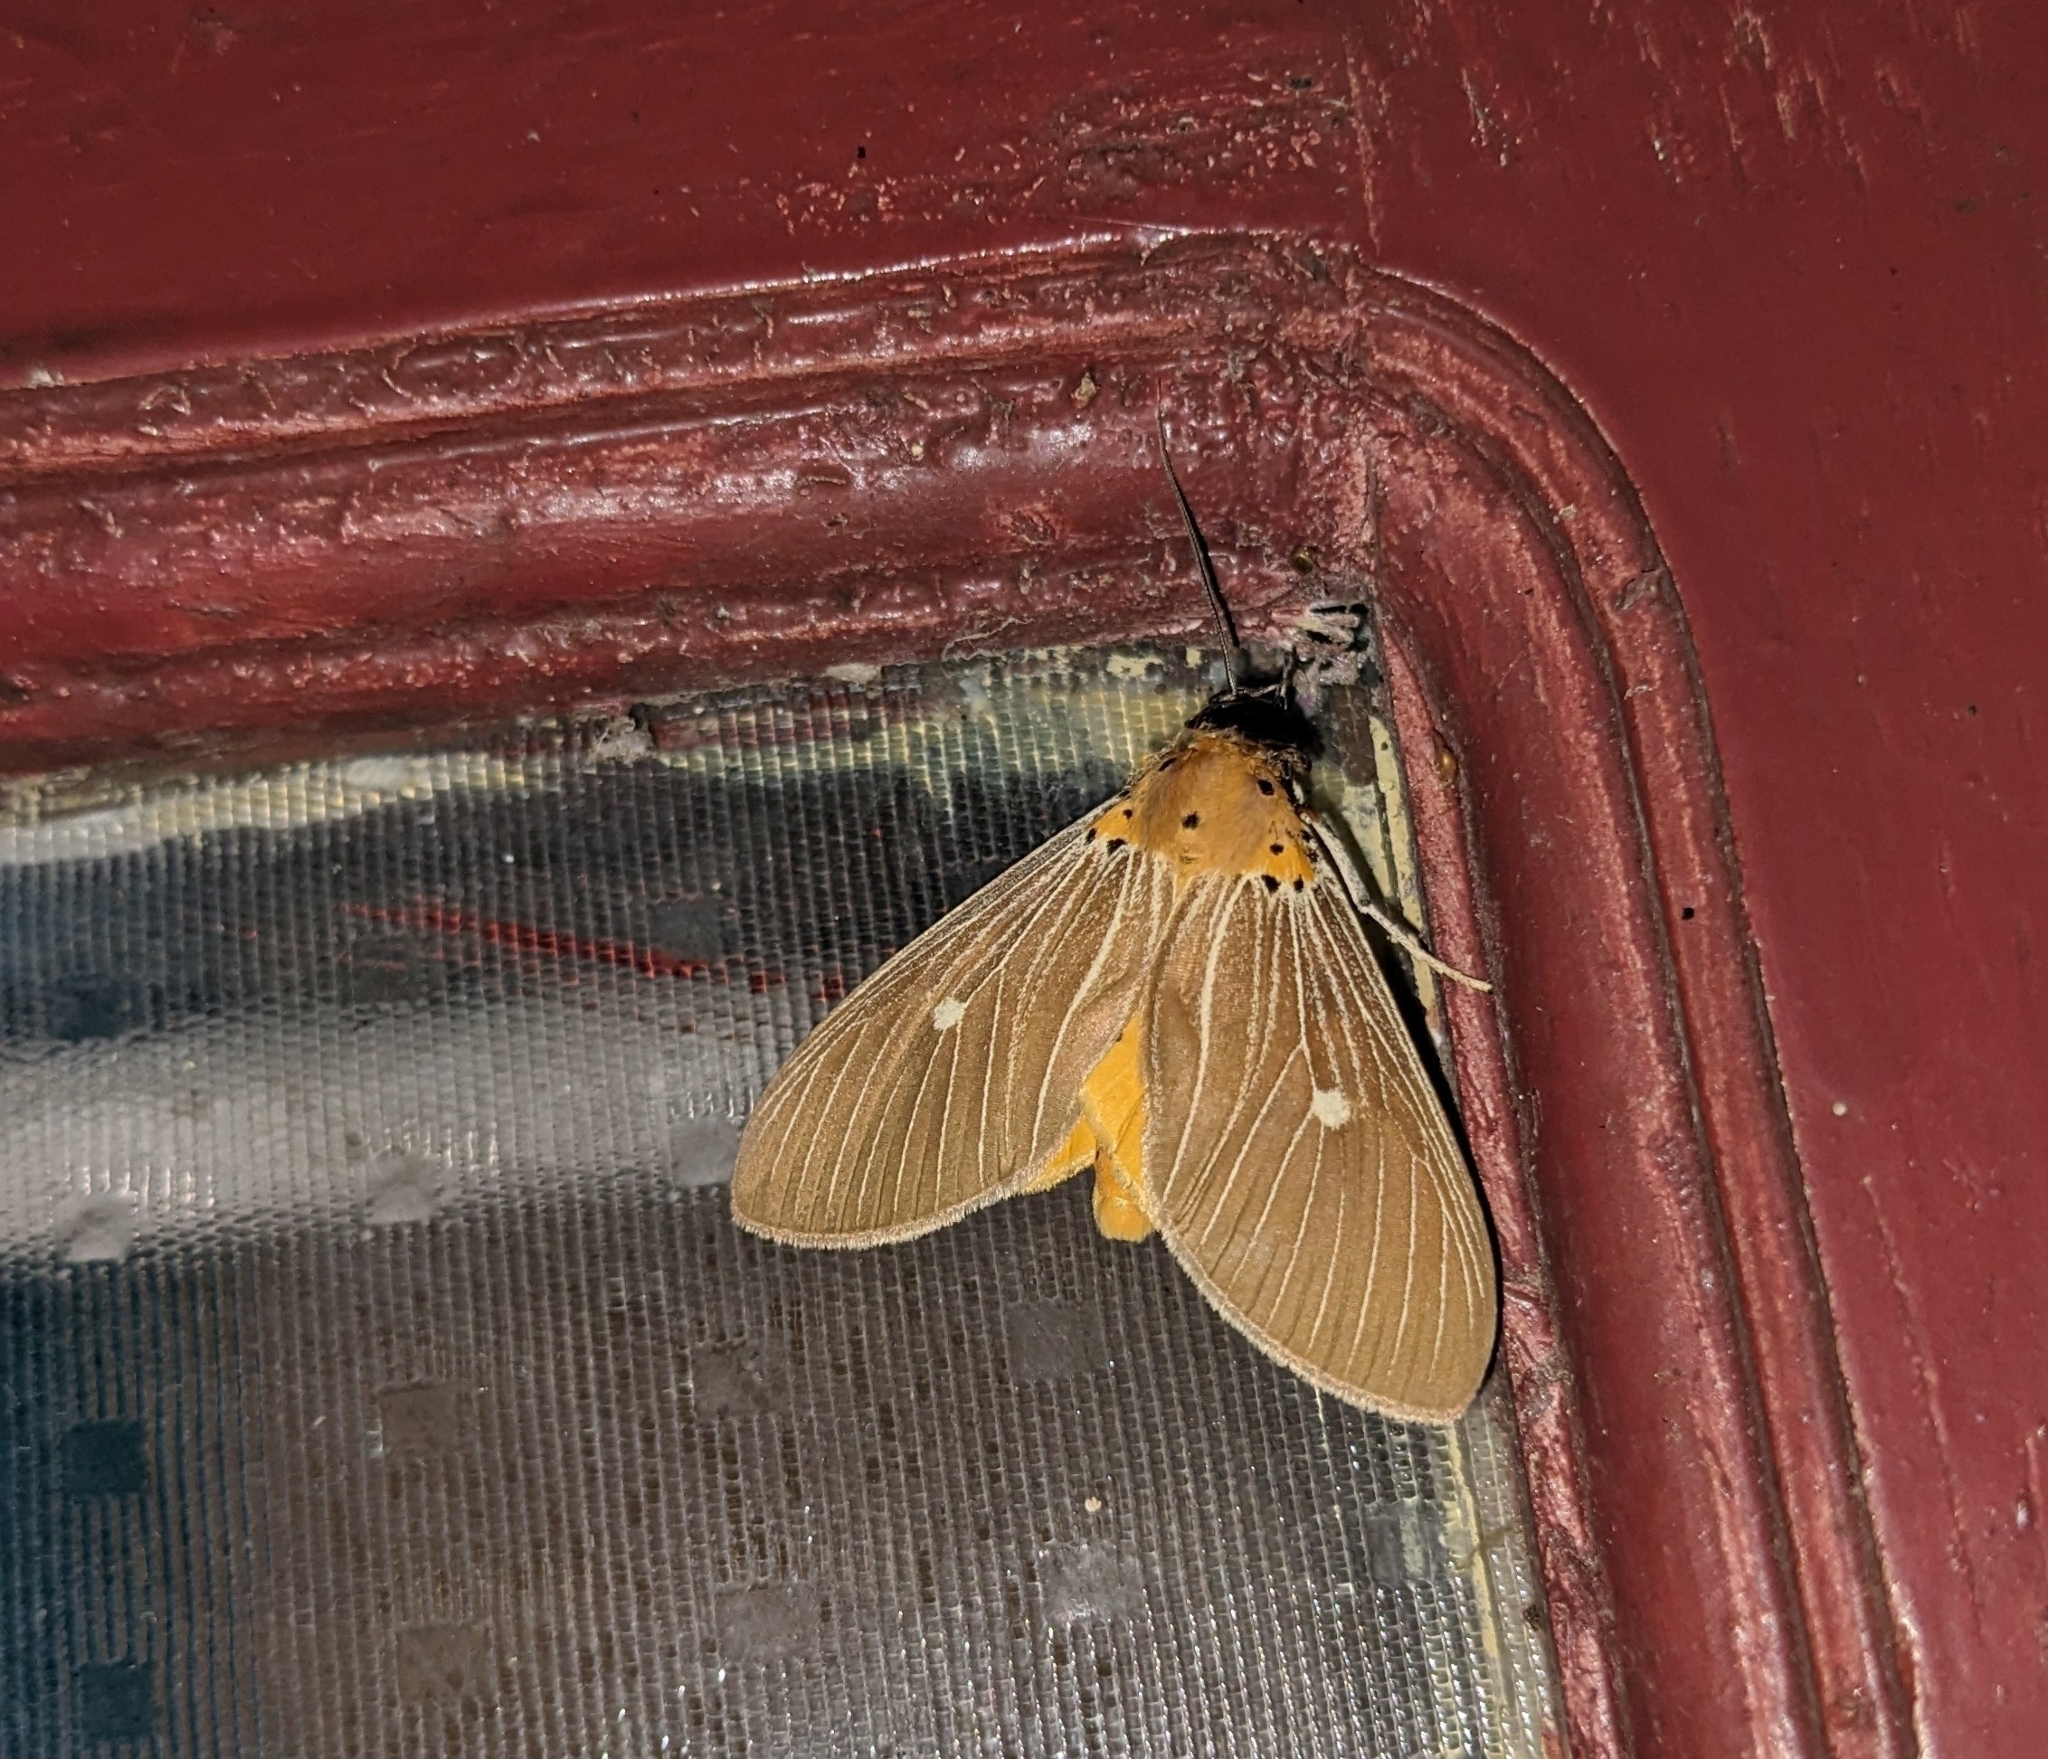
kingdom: Animalia
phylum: Arthropoda
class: Insecta
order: Lepidoptera
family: Erebidae
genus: Asota
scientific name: Asota caricae
